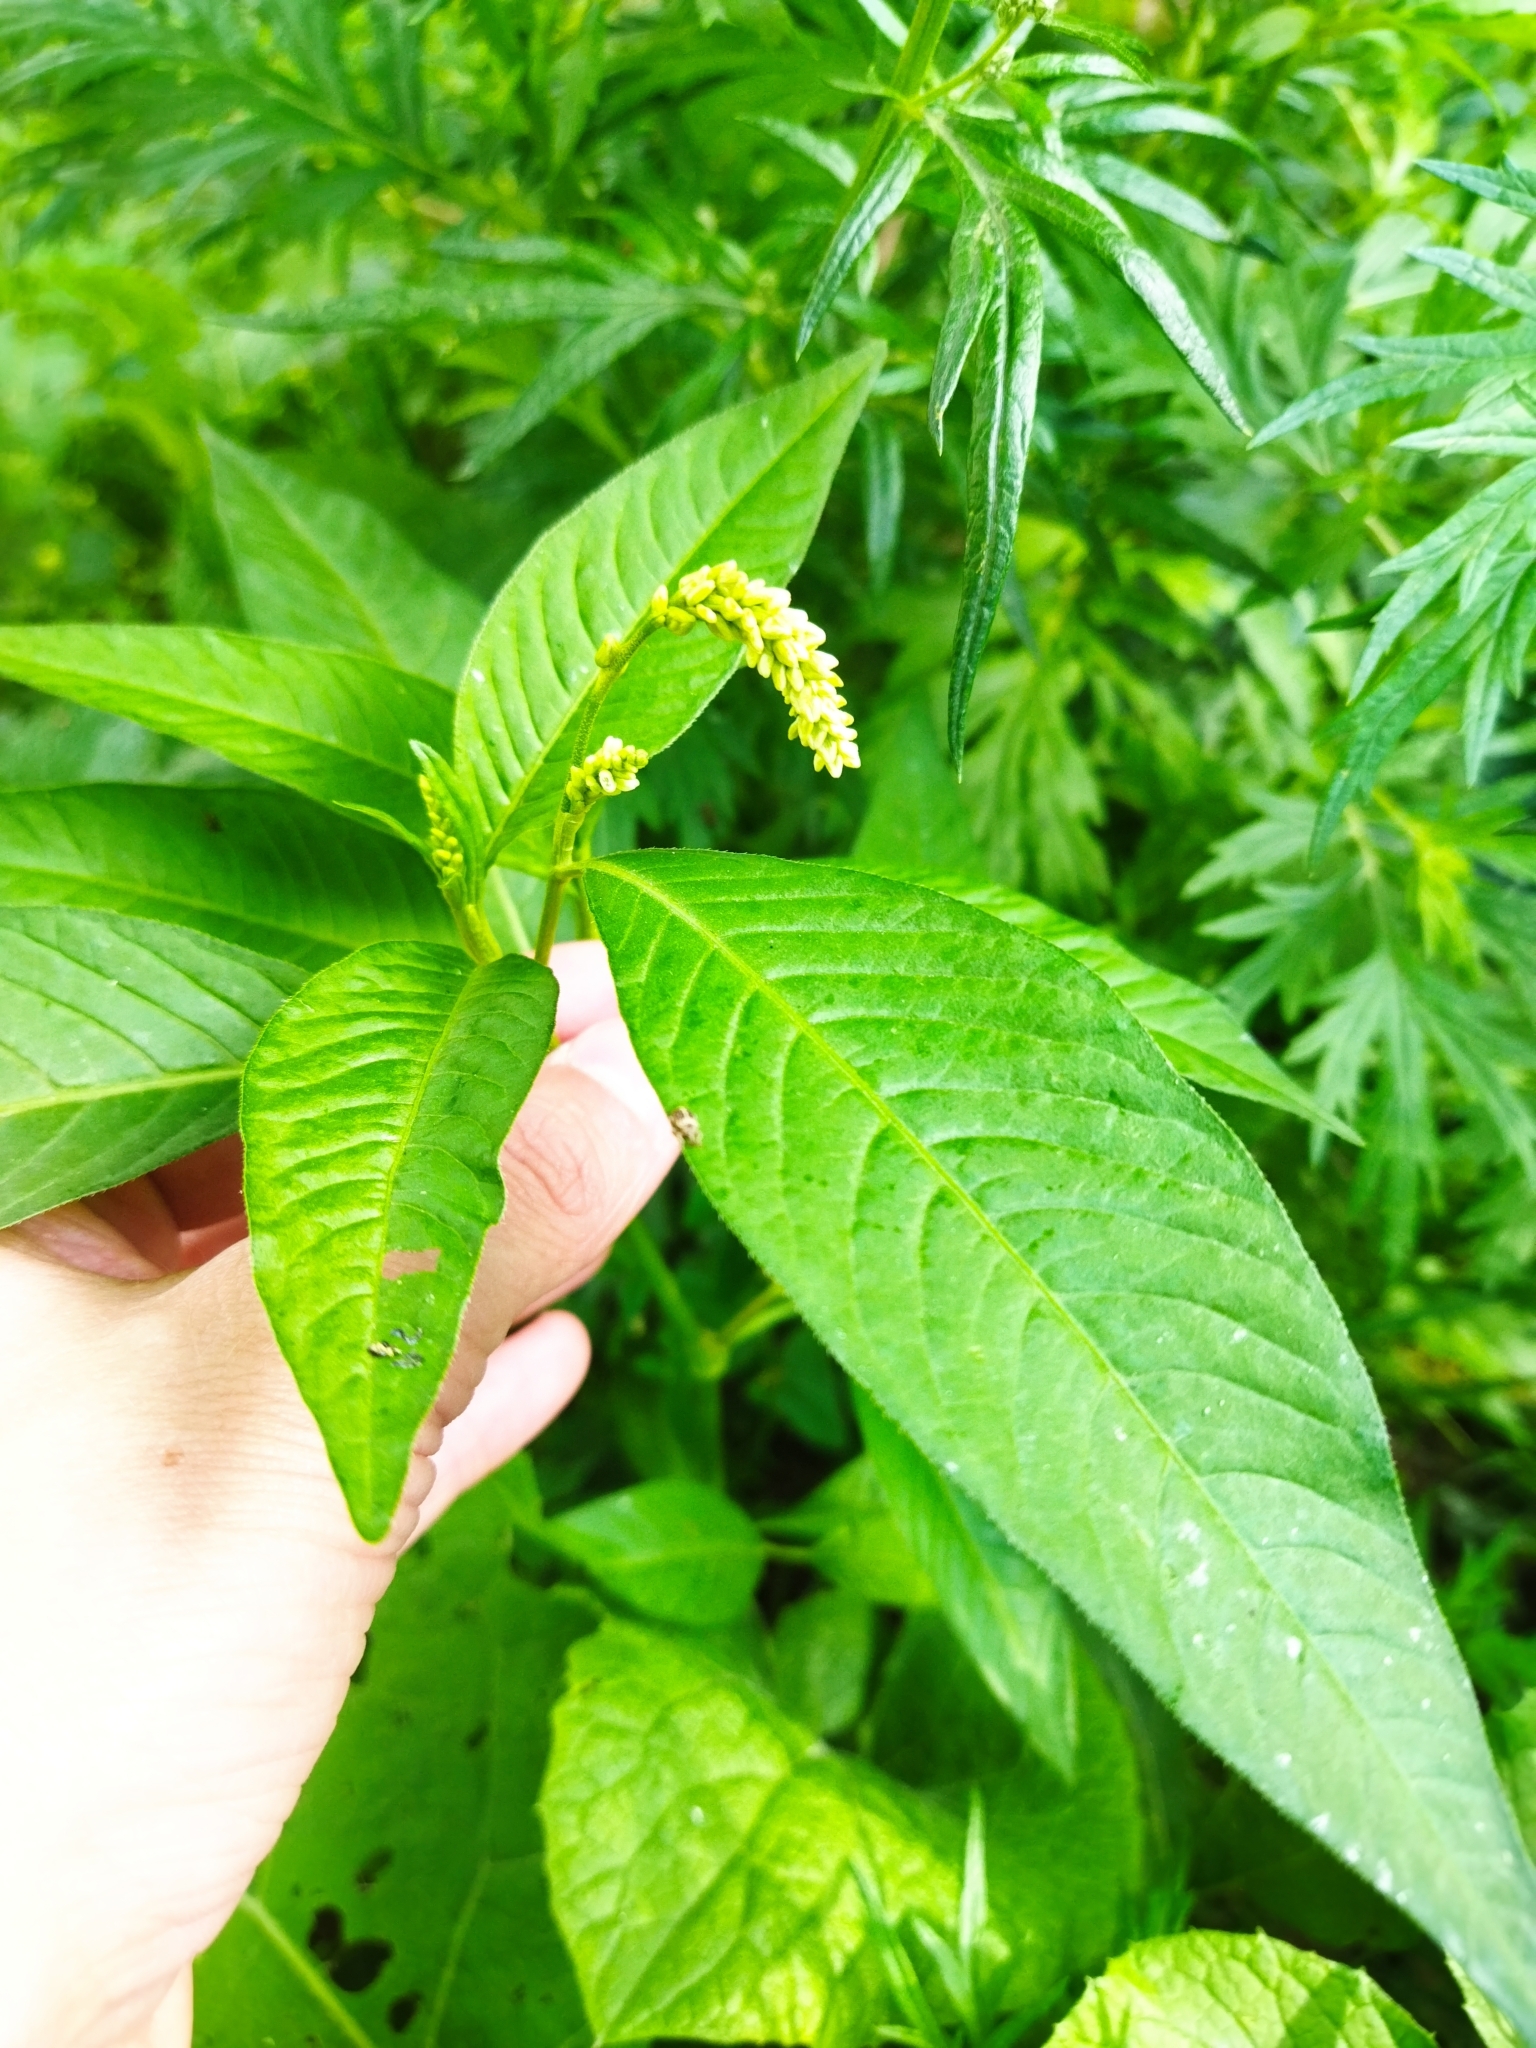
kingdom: Plantae
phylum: Tracheophyta
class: Magnoliopsida
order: Caryophyllales
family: Polygonaceae
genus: Persicaria
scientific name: Persicaria lapathifolia
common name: Curlytop knotweed
